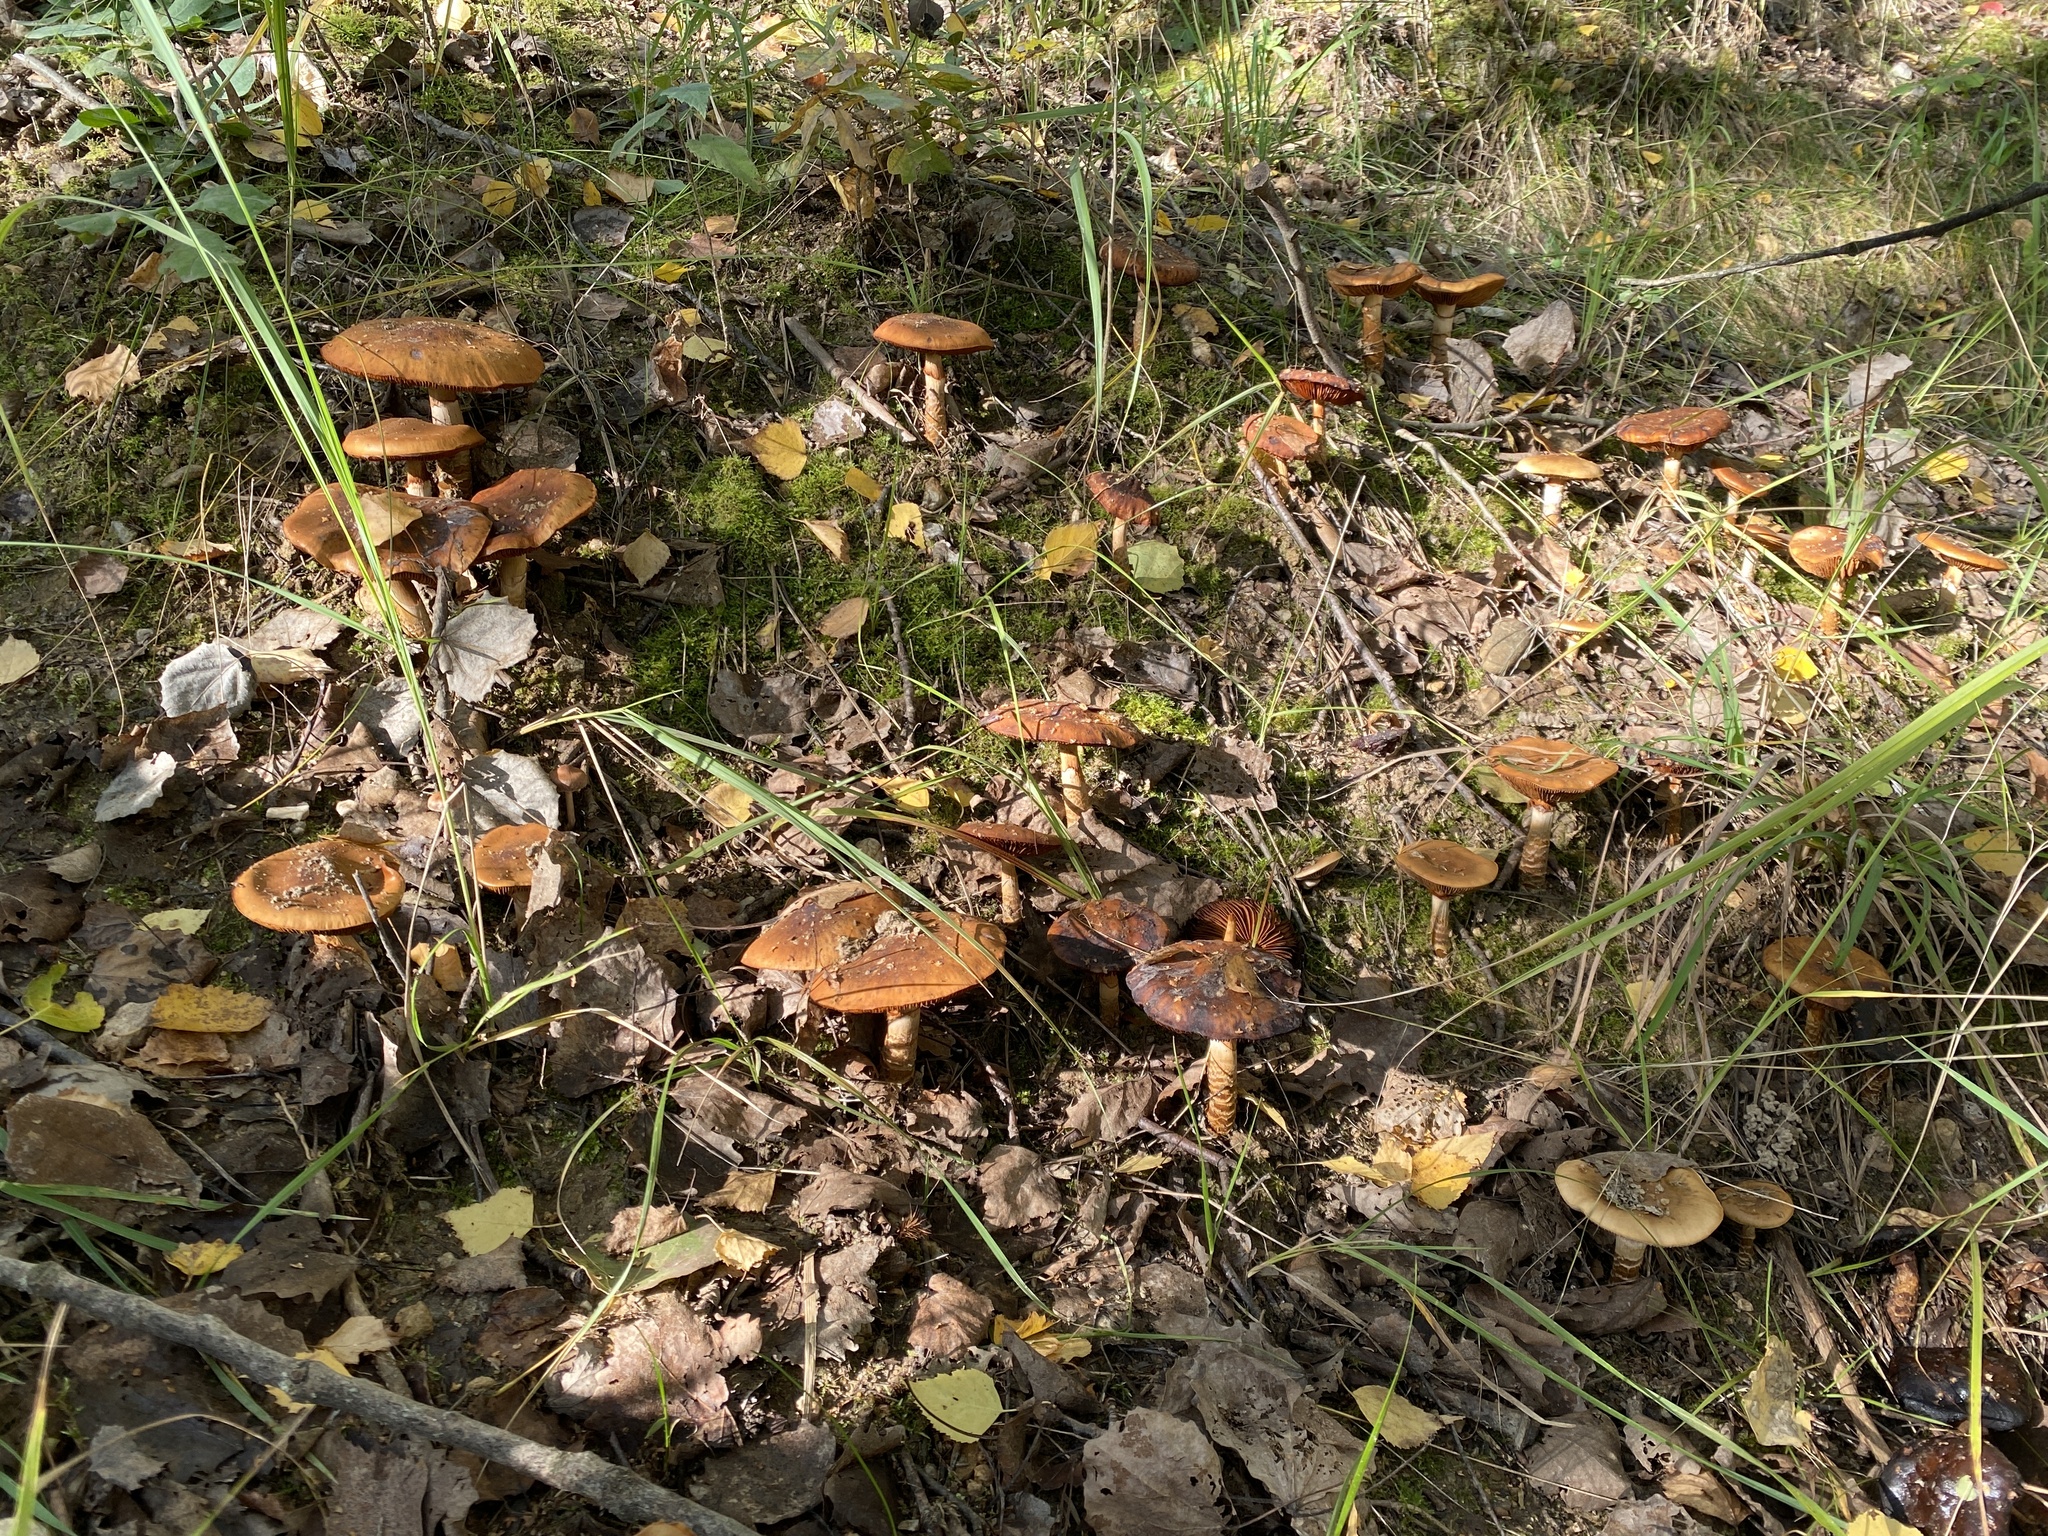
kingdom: Fungi
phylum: Basidiomycota
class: Agaricomycetes
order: Agaricales
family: Cortinariaceae
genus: Cortinarius
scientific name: Cortinarius trivialis
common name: Girdled webcap
